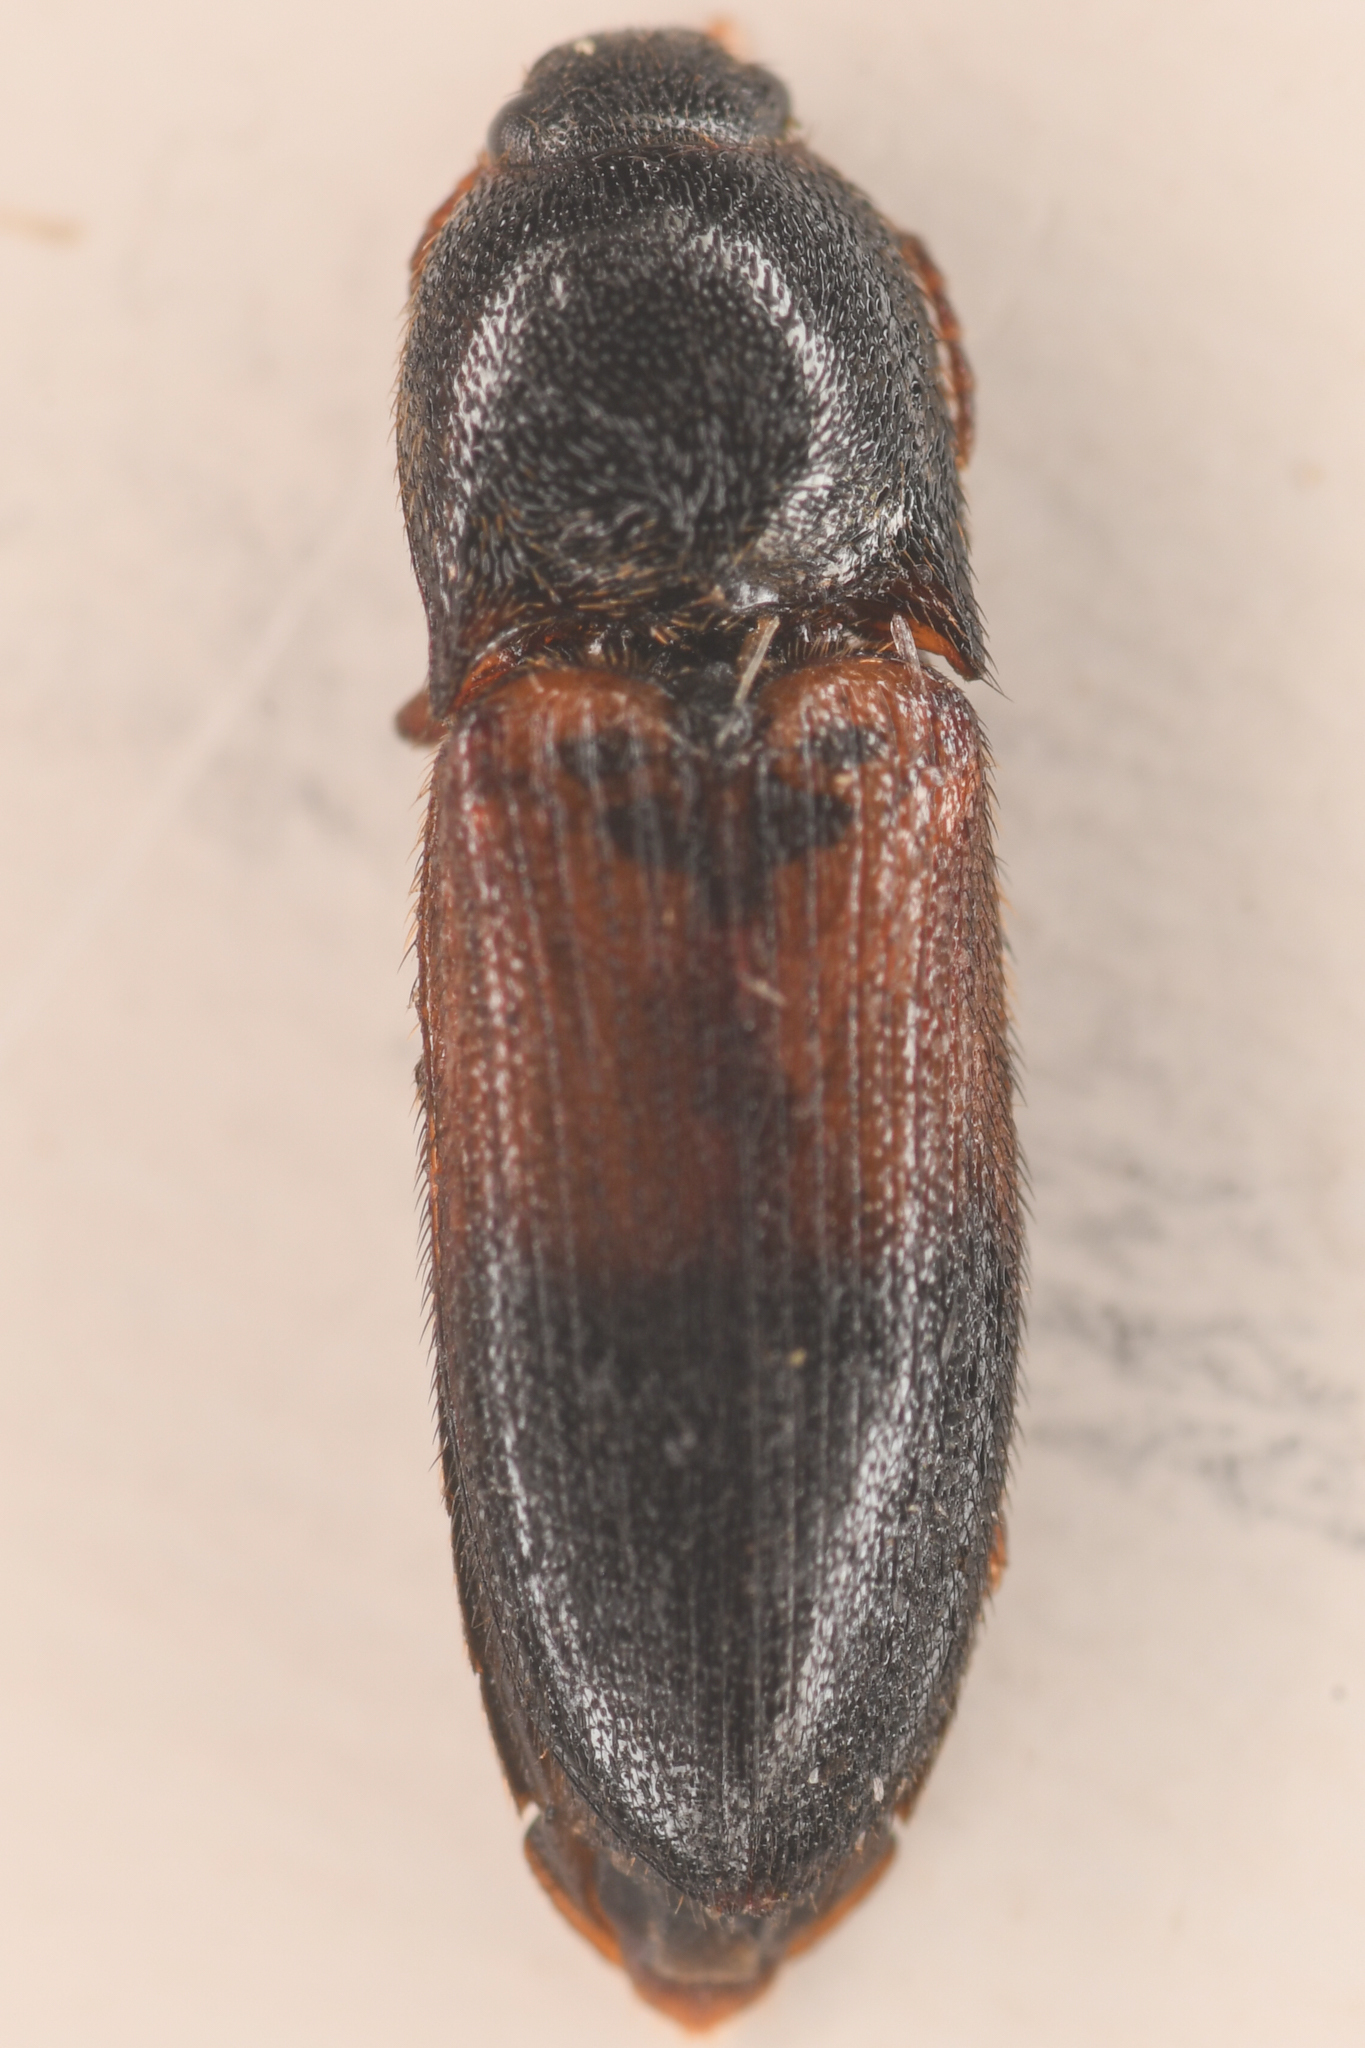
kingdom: Animalia
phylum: Arthropoda
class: Insecta
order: Coleoptera
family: Elateridae
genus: Ampedus
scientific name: Ampedus pullus
